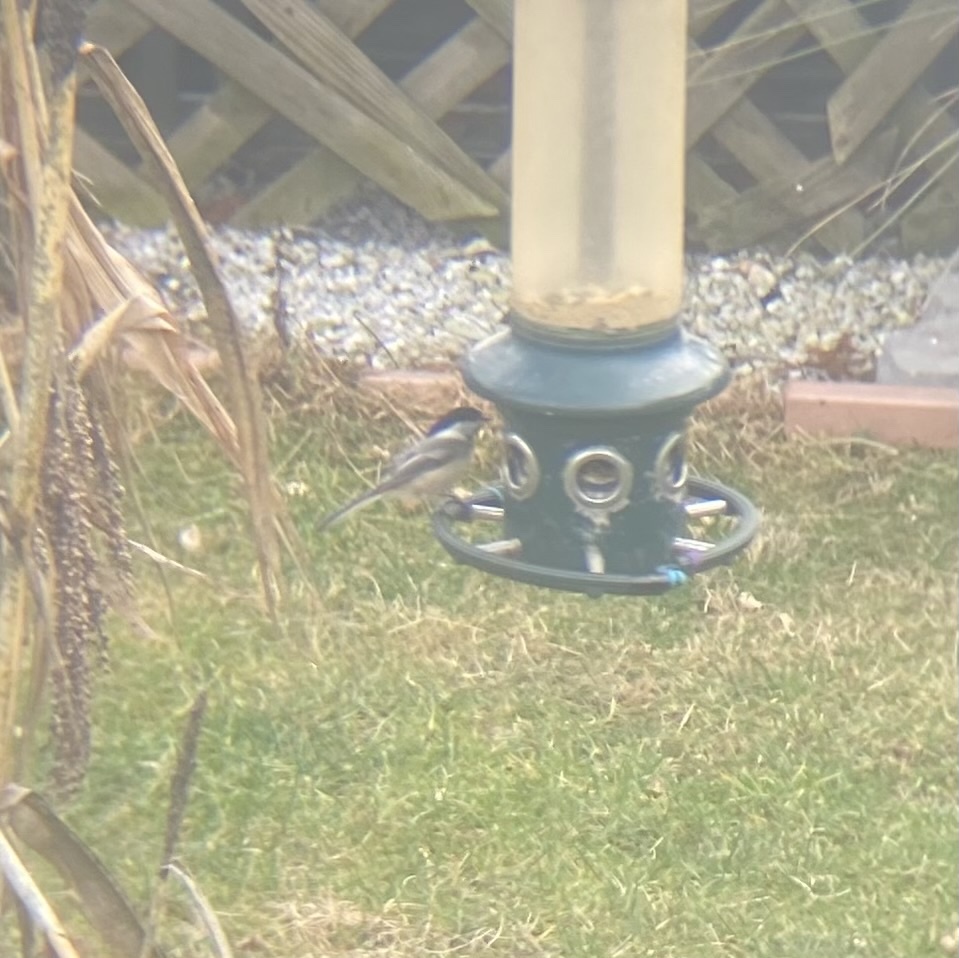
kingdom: Animalia
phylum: Chordata
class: Aves
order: Passeriformes
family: Paridae
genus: Poecile
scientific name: Poecile atricapillus
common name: Black-capped chickadee
